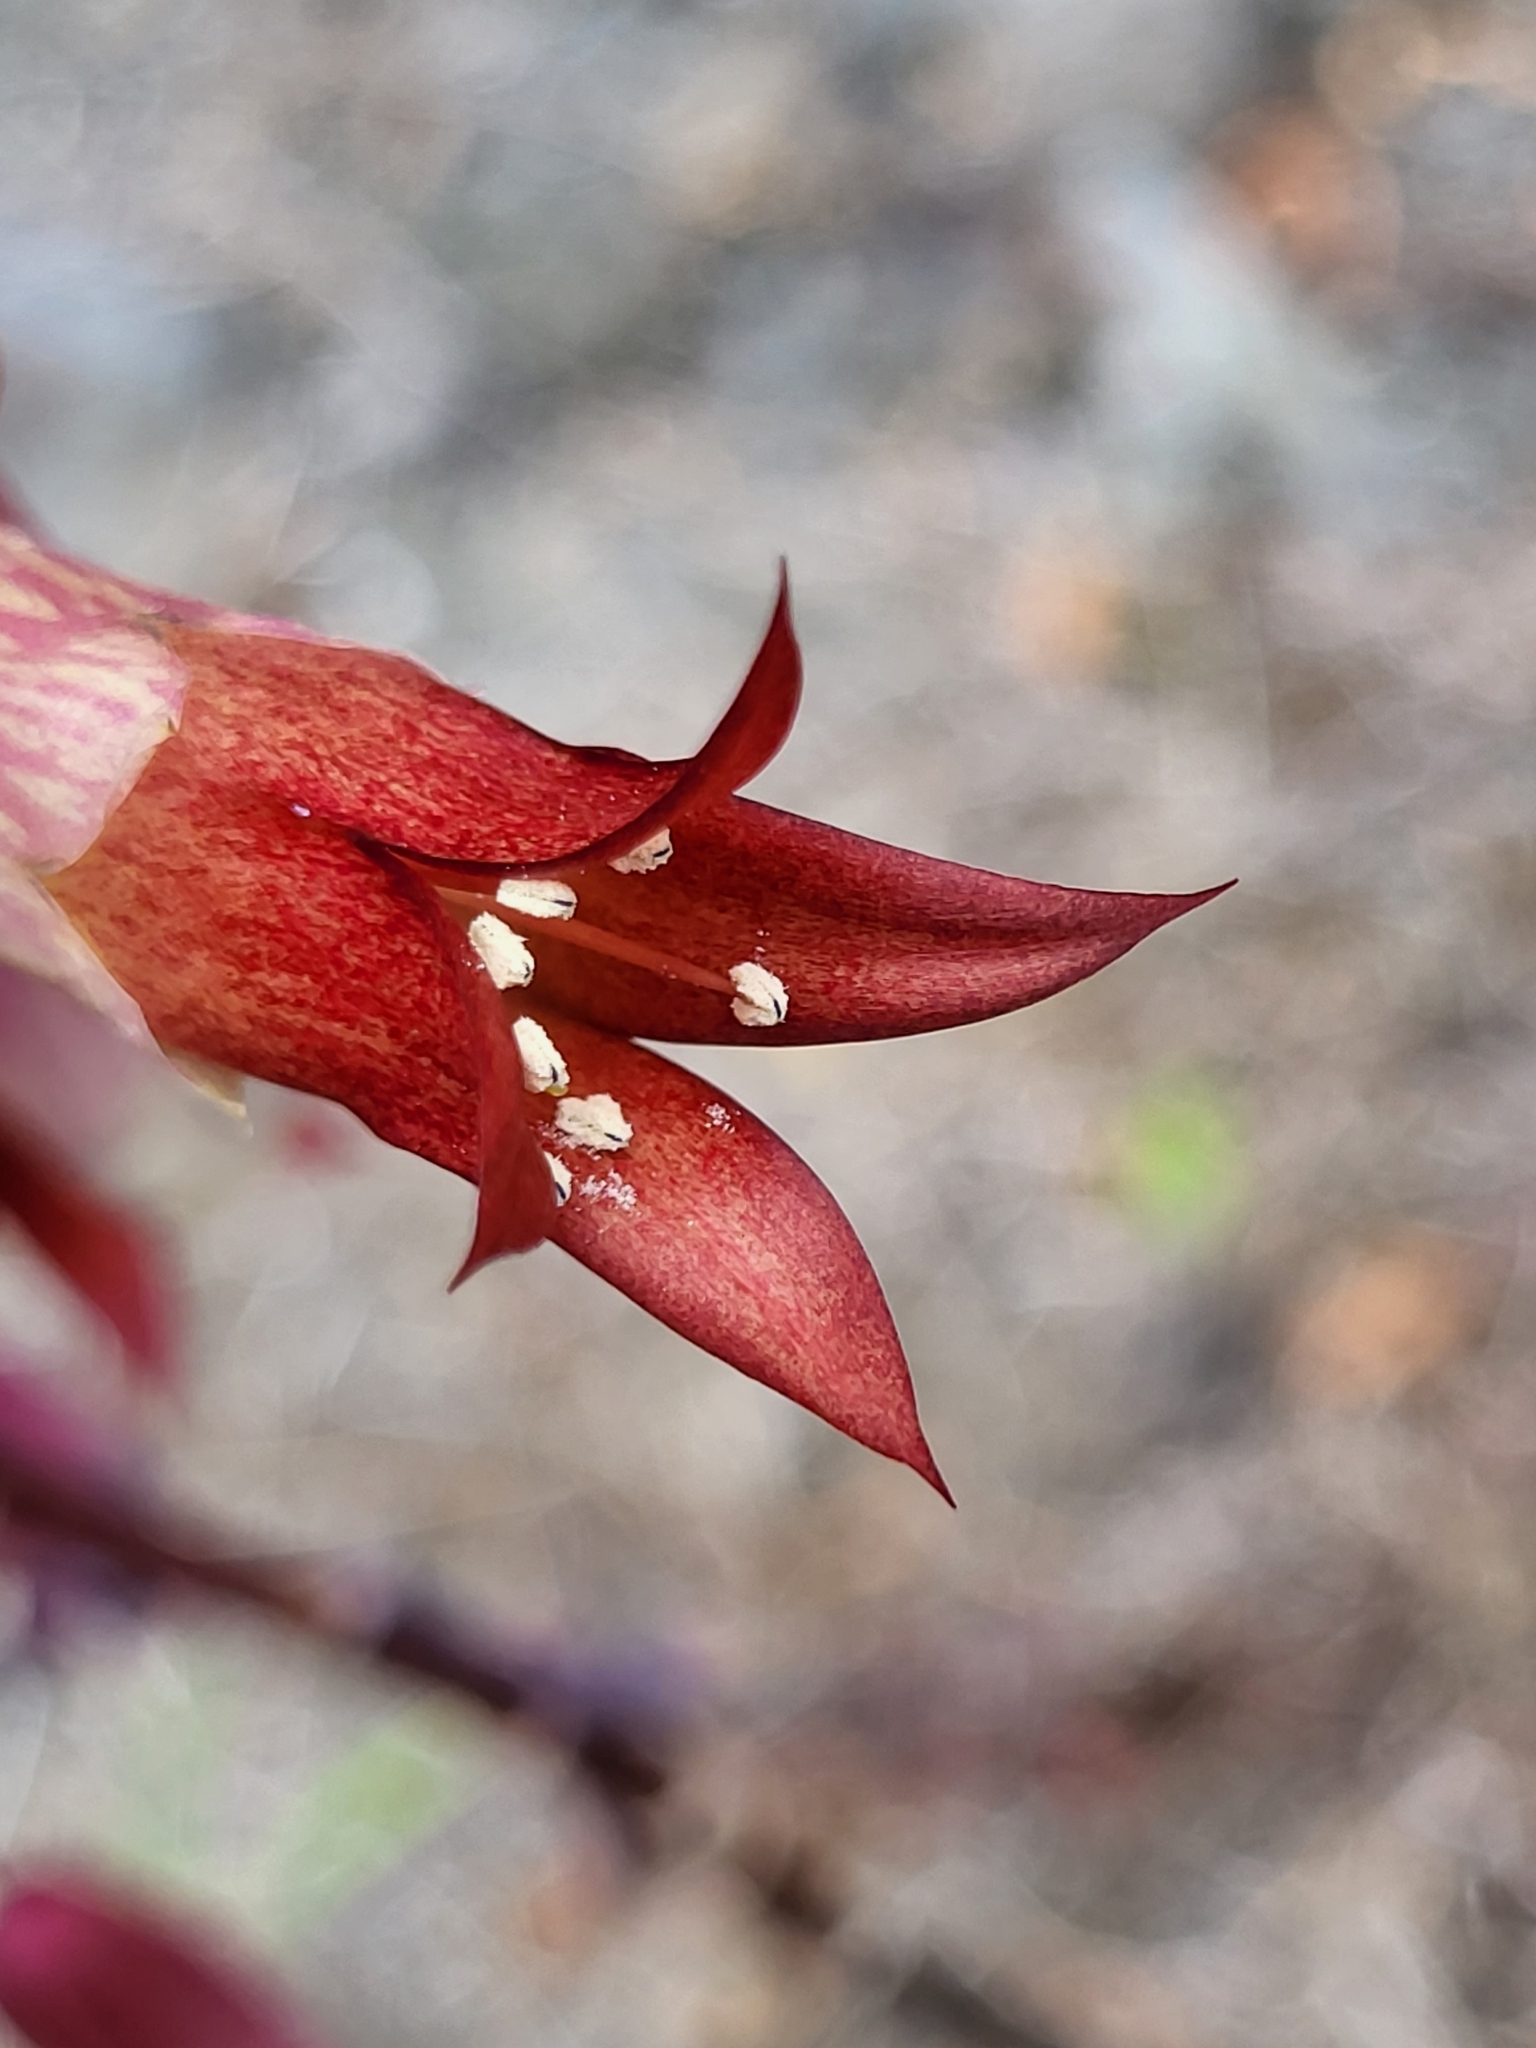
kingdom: Plantae
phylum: Tracheophyta
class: Magnoliopsida
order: Saxifragales
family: Crassulaceae
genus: Kalanchoe
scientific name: Kalanchoe pinnata
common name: Cathedral bells
